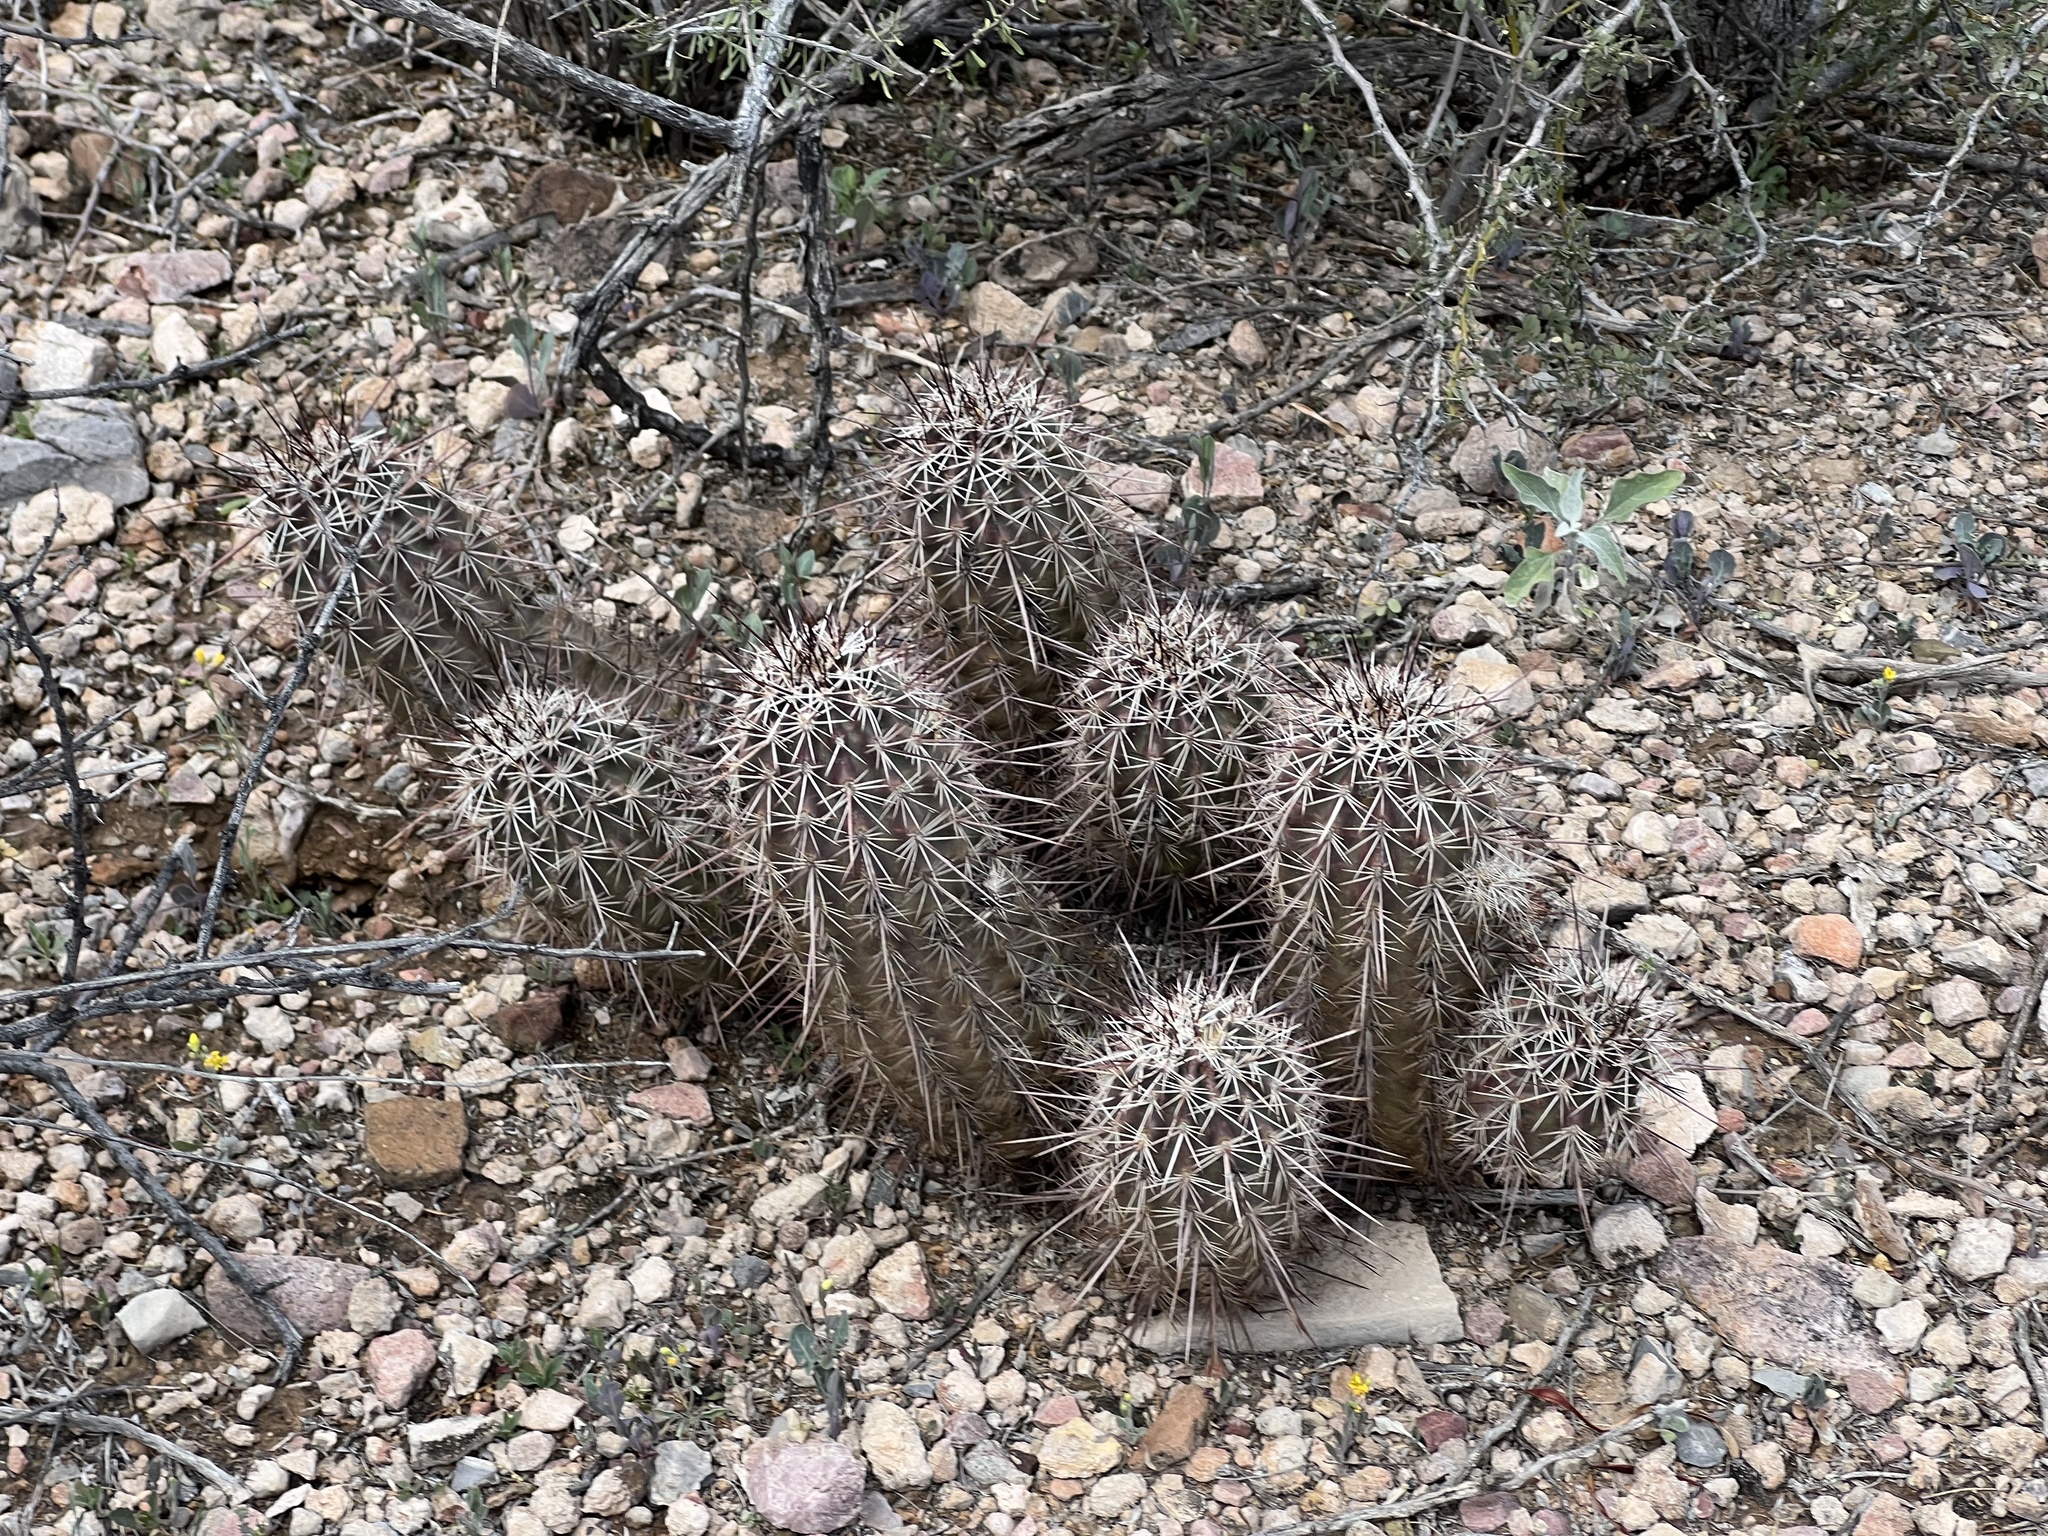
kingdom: Plantae
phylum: Tracheophyta
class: Magnoliopsida
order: Caryophyllales
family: Cactaceae
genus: Echinocereus
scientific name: Echinocereus fasciculatus
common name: Bundle hedgehog
